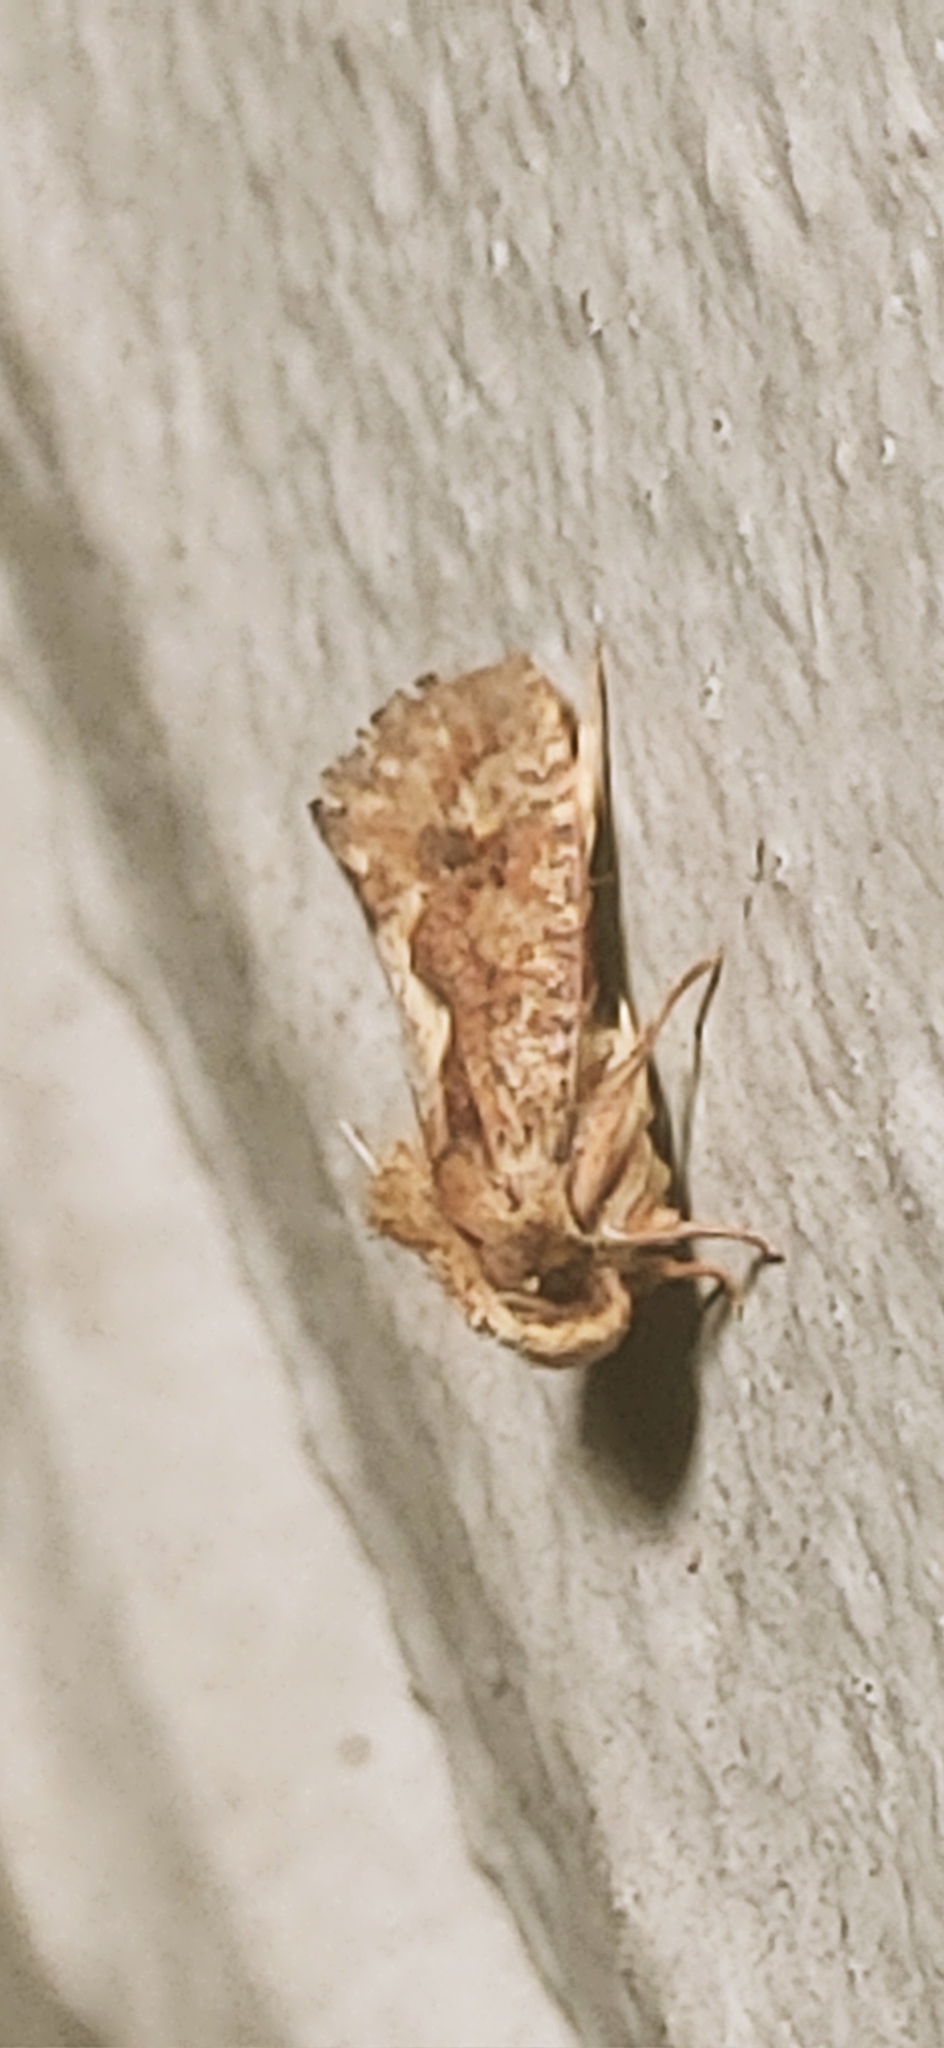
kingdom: Animalia
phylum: Arthropoda
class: Insecta
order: Lepidoptera
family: Tineidae
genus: Acrolophus
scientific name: Acrolophus walsinghami
